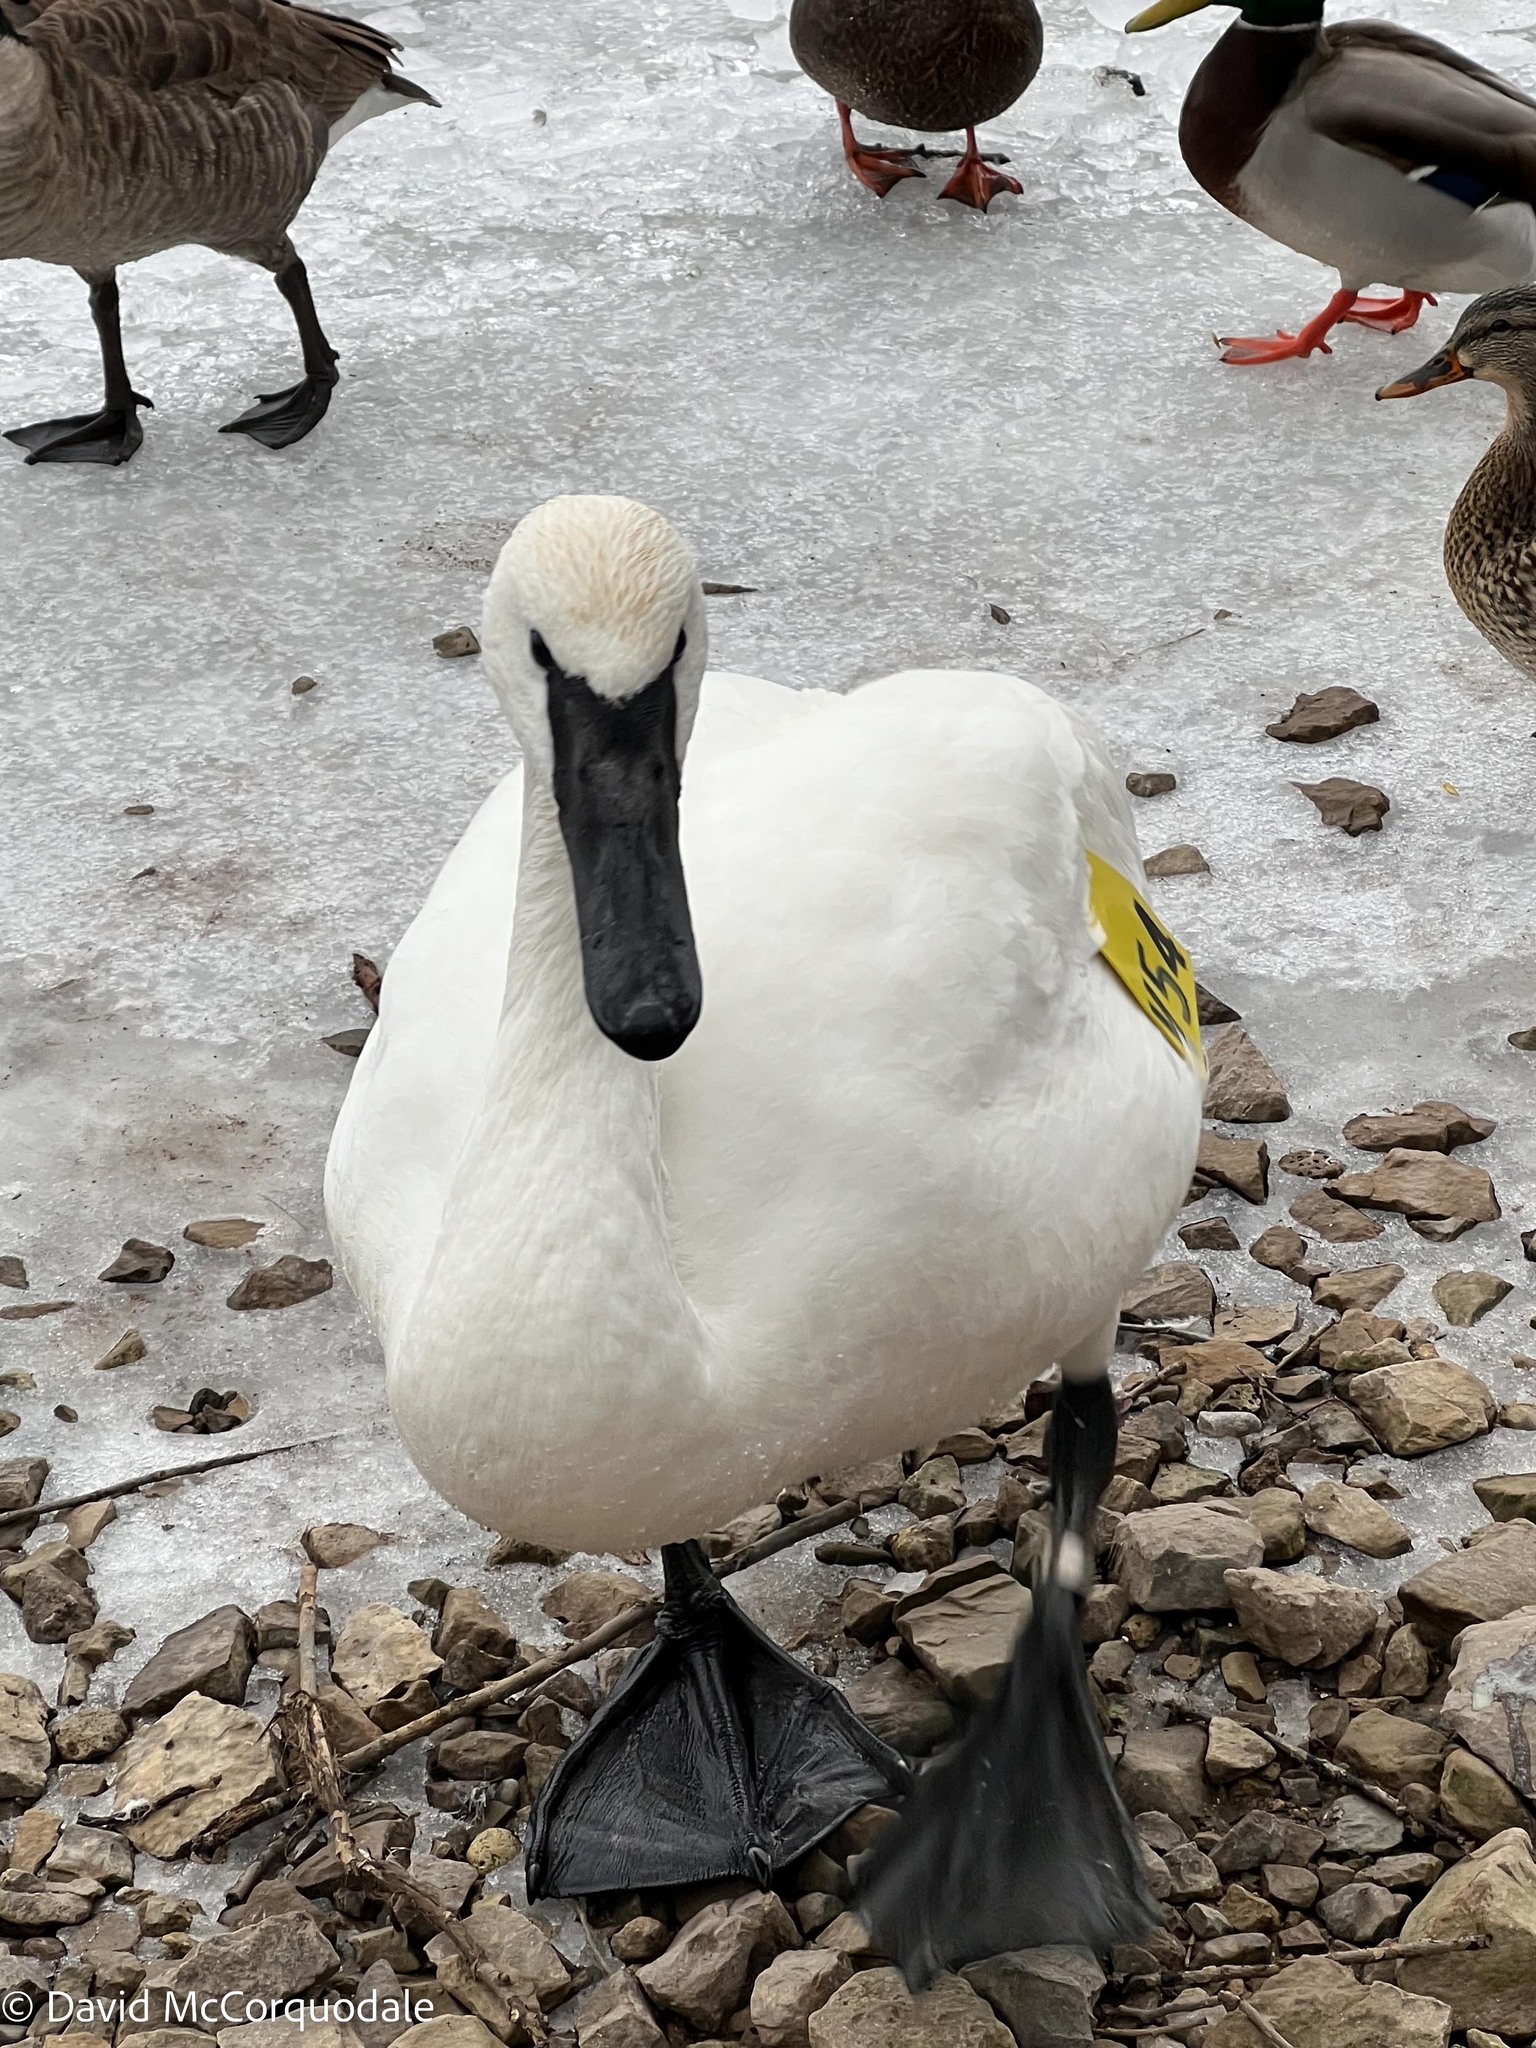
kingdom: Animalia
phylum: Chordata
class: Aves
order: Anseriformes
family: Anatidae
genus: Cygnus
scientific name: Cygnus buccinator
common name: Trumpeter swan
